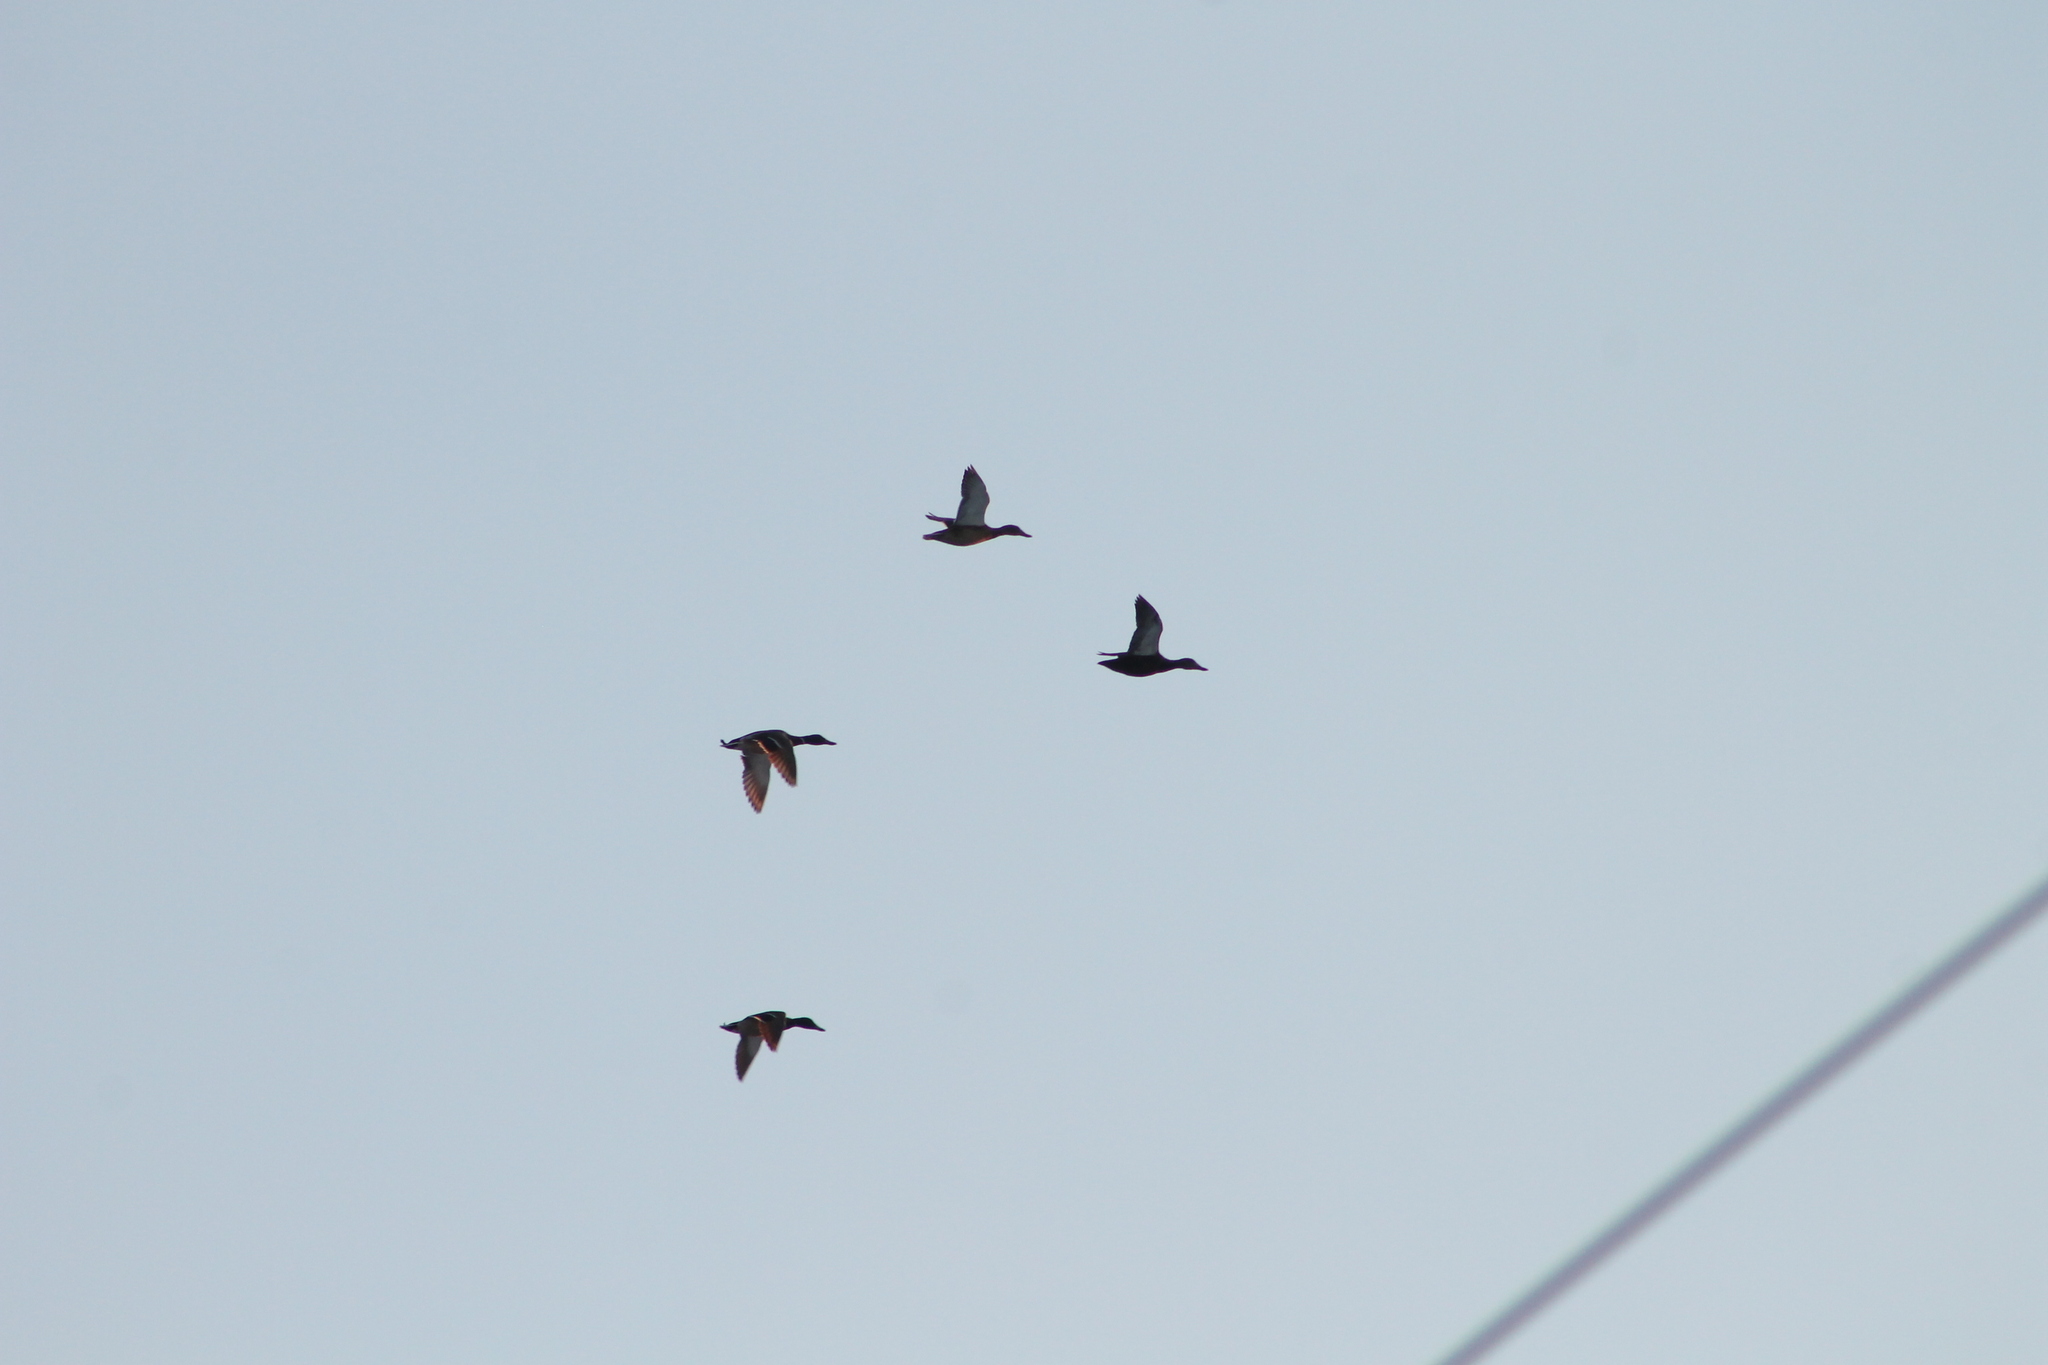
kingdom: Animalia
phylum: Chordata
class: Aves
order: Anseriformes
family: Anatidae
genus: Anas
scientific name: Anas platyrhynchos
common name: Mallard
